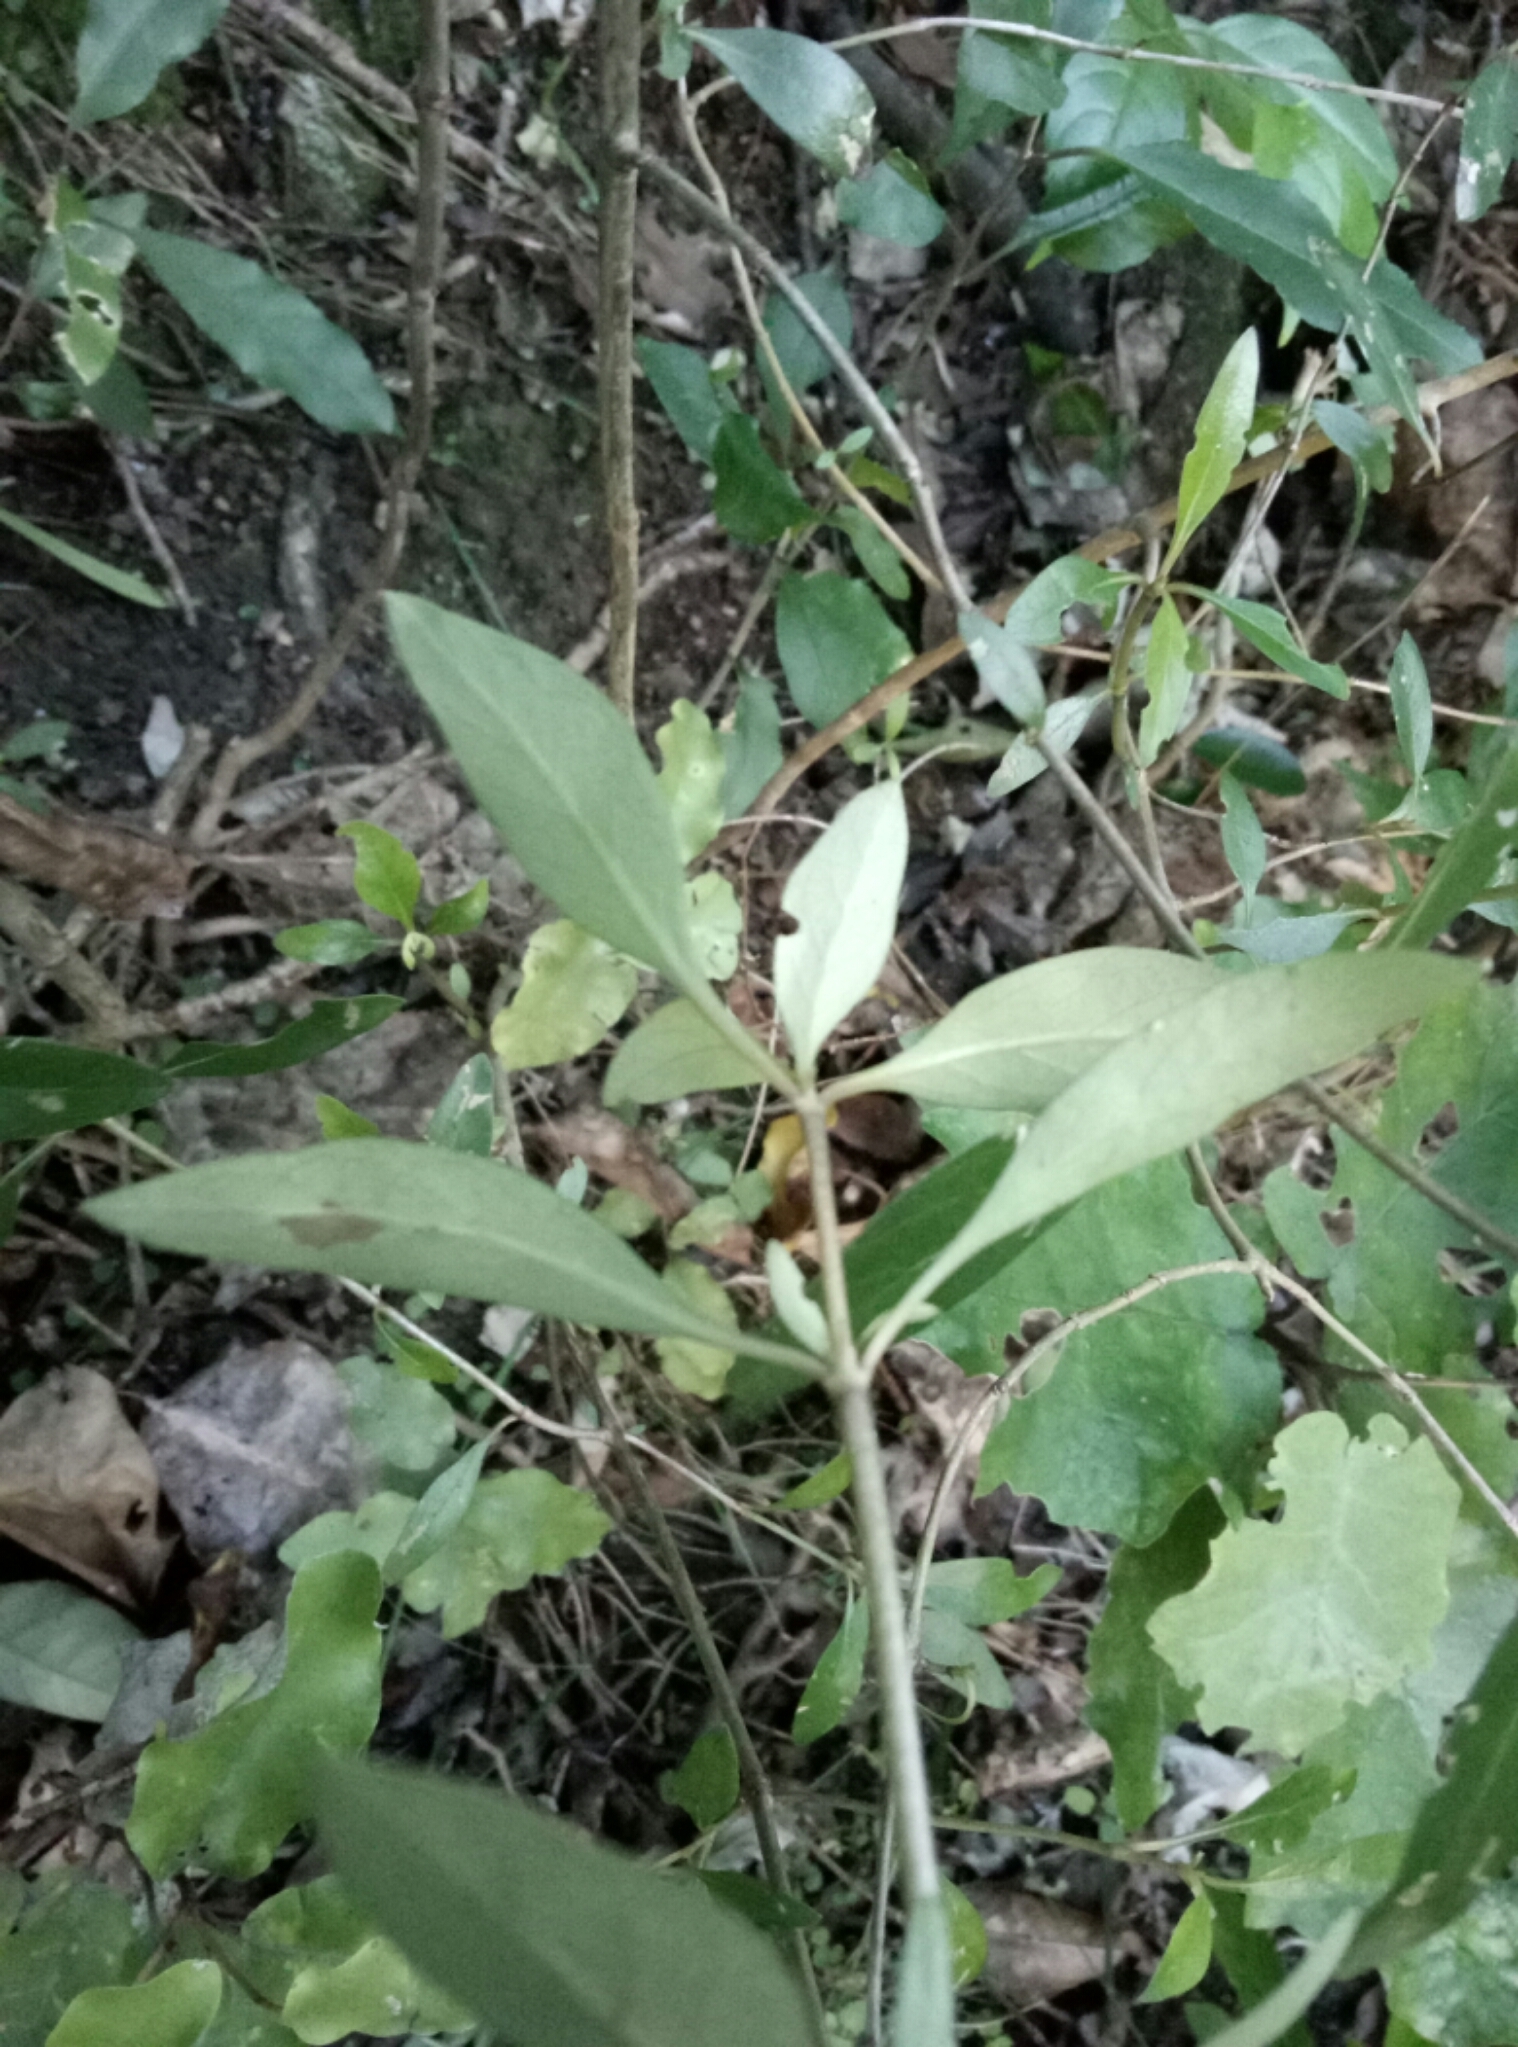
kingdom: Plantae
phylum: Tracheophyta
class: Magnoliopsida
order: Gentianales
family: Rubiaceae
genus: Coprosma
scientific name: Coprosma cunninghamii
